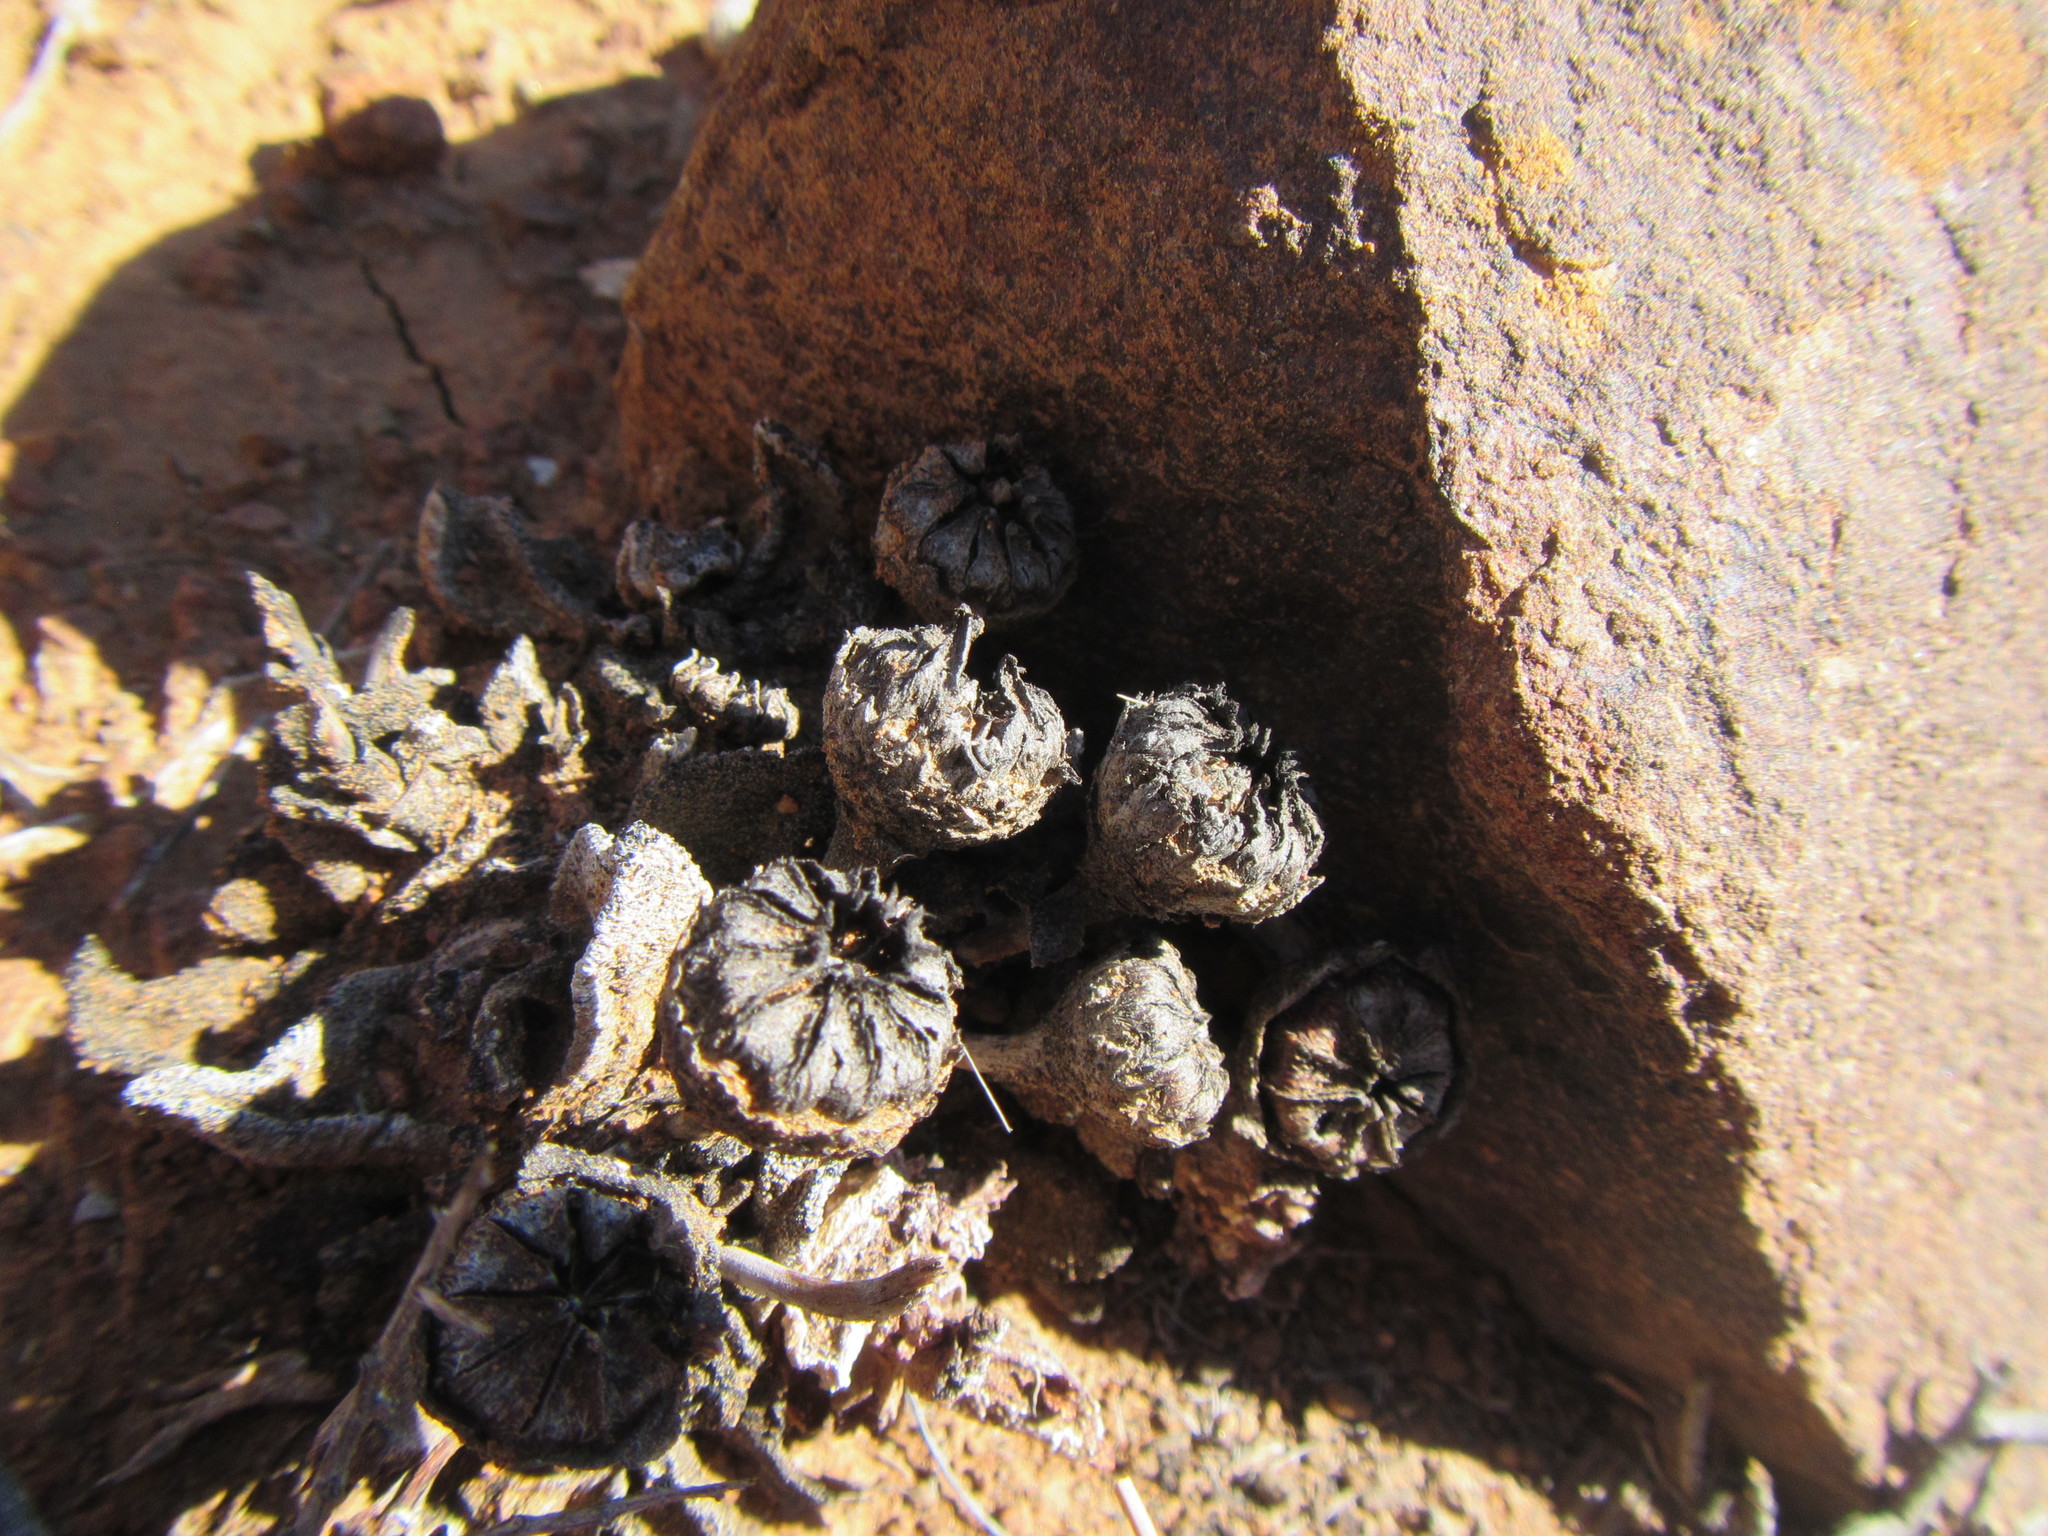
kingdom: Plantae
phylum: Tracheophyta
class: Magnoliopsida
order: Caryophyllales
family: Aizoaceae
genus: Pleiospilos
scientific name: Pleiospilos compactus
